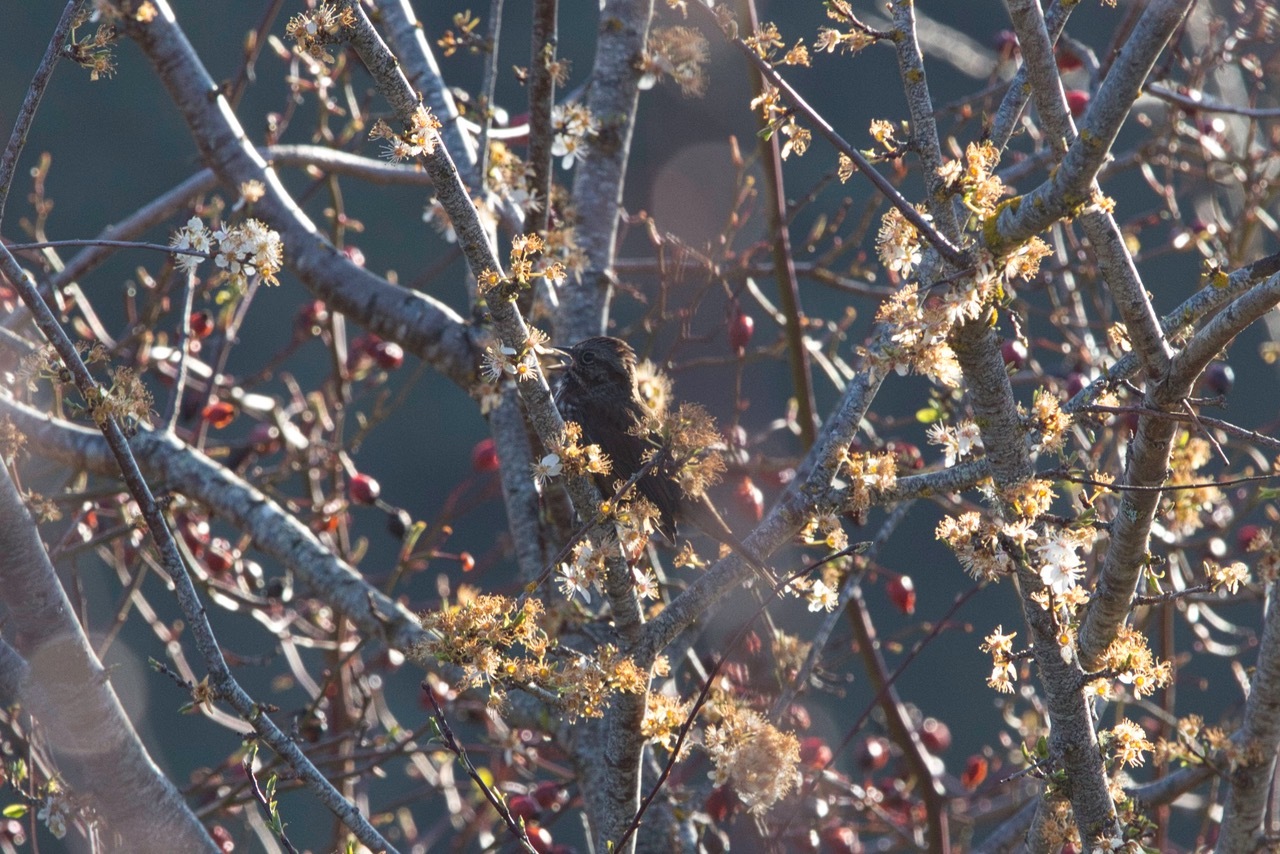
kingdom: Animalia
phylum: Chordata
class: Aves
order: Passeriformes
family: Passerellidae
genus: Melospiza
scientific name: Melospiza melodia
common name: Song sparrow
